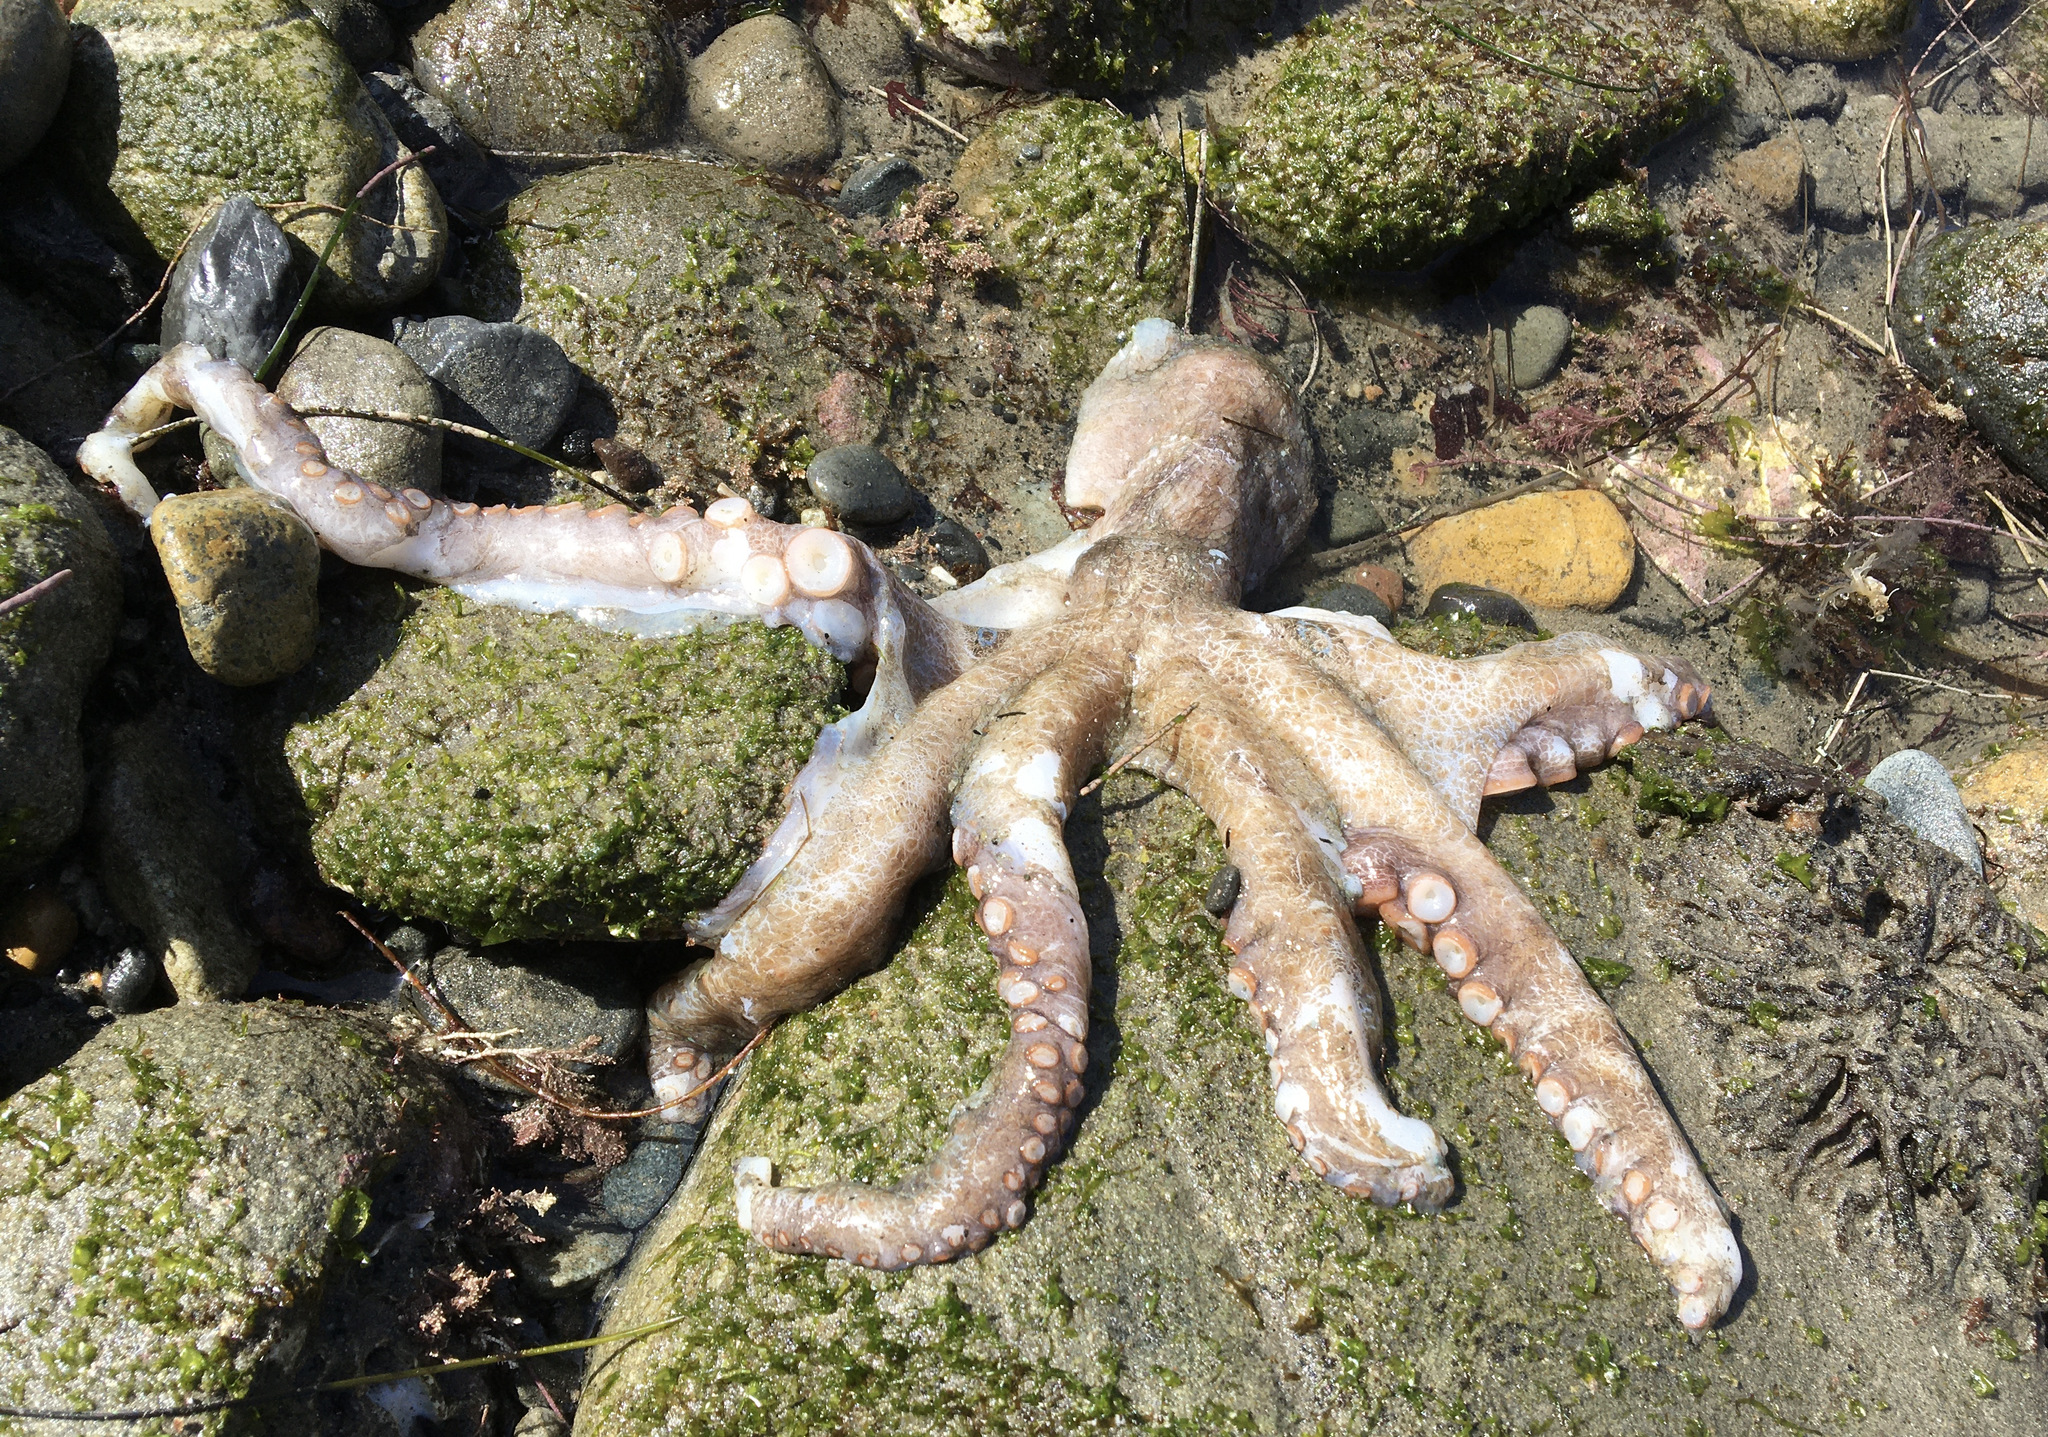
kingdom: Animalia
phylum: Mollusca
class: Cephalopoda
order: Octopoda
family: Octopodidae
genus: Octopus
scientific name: Octopus bimaculoides
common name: California two-spot octopus
